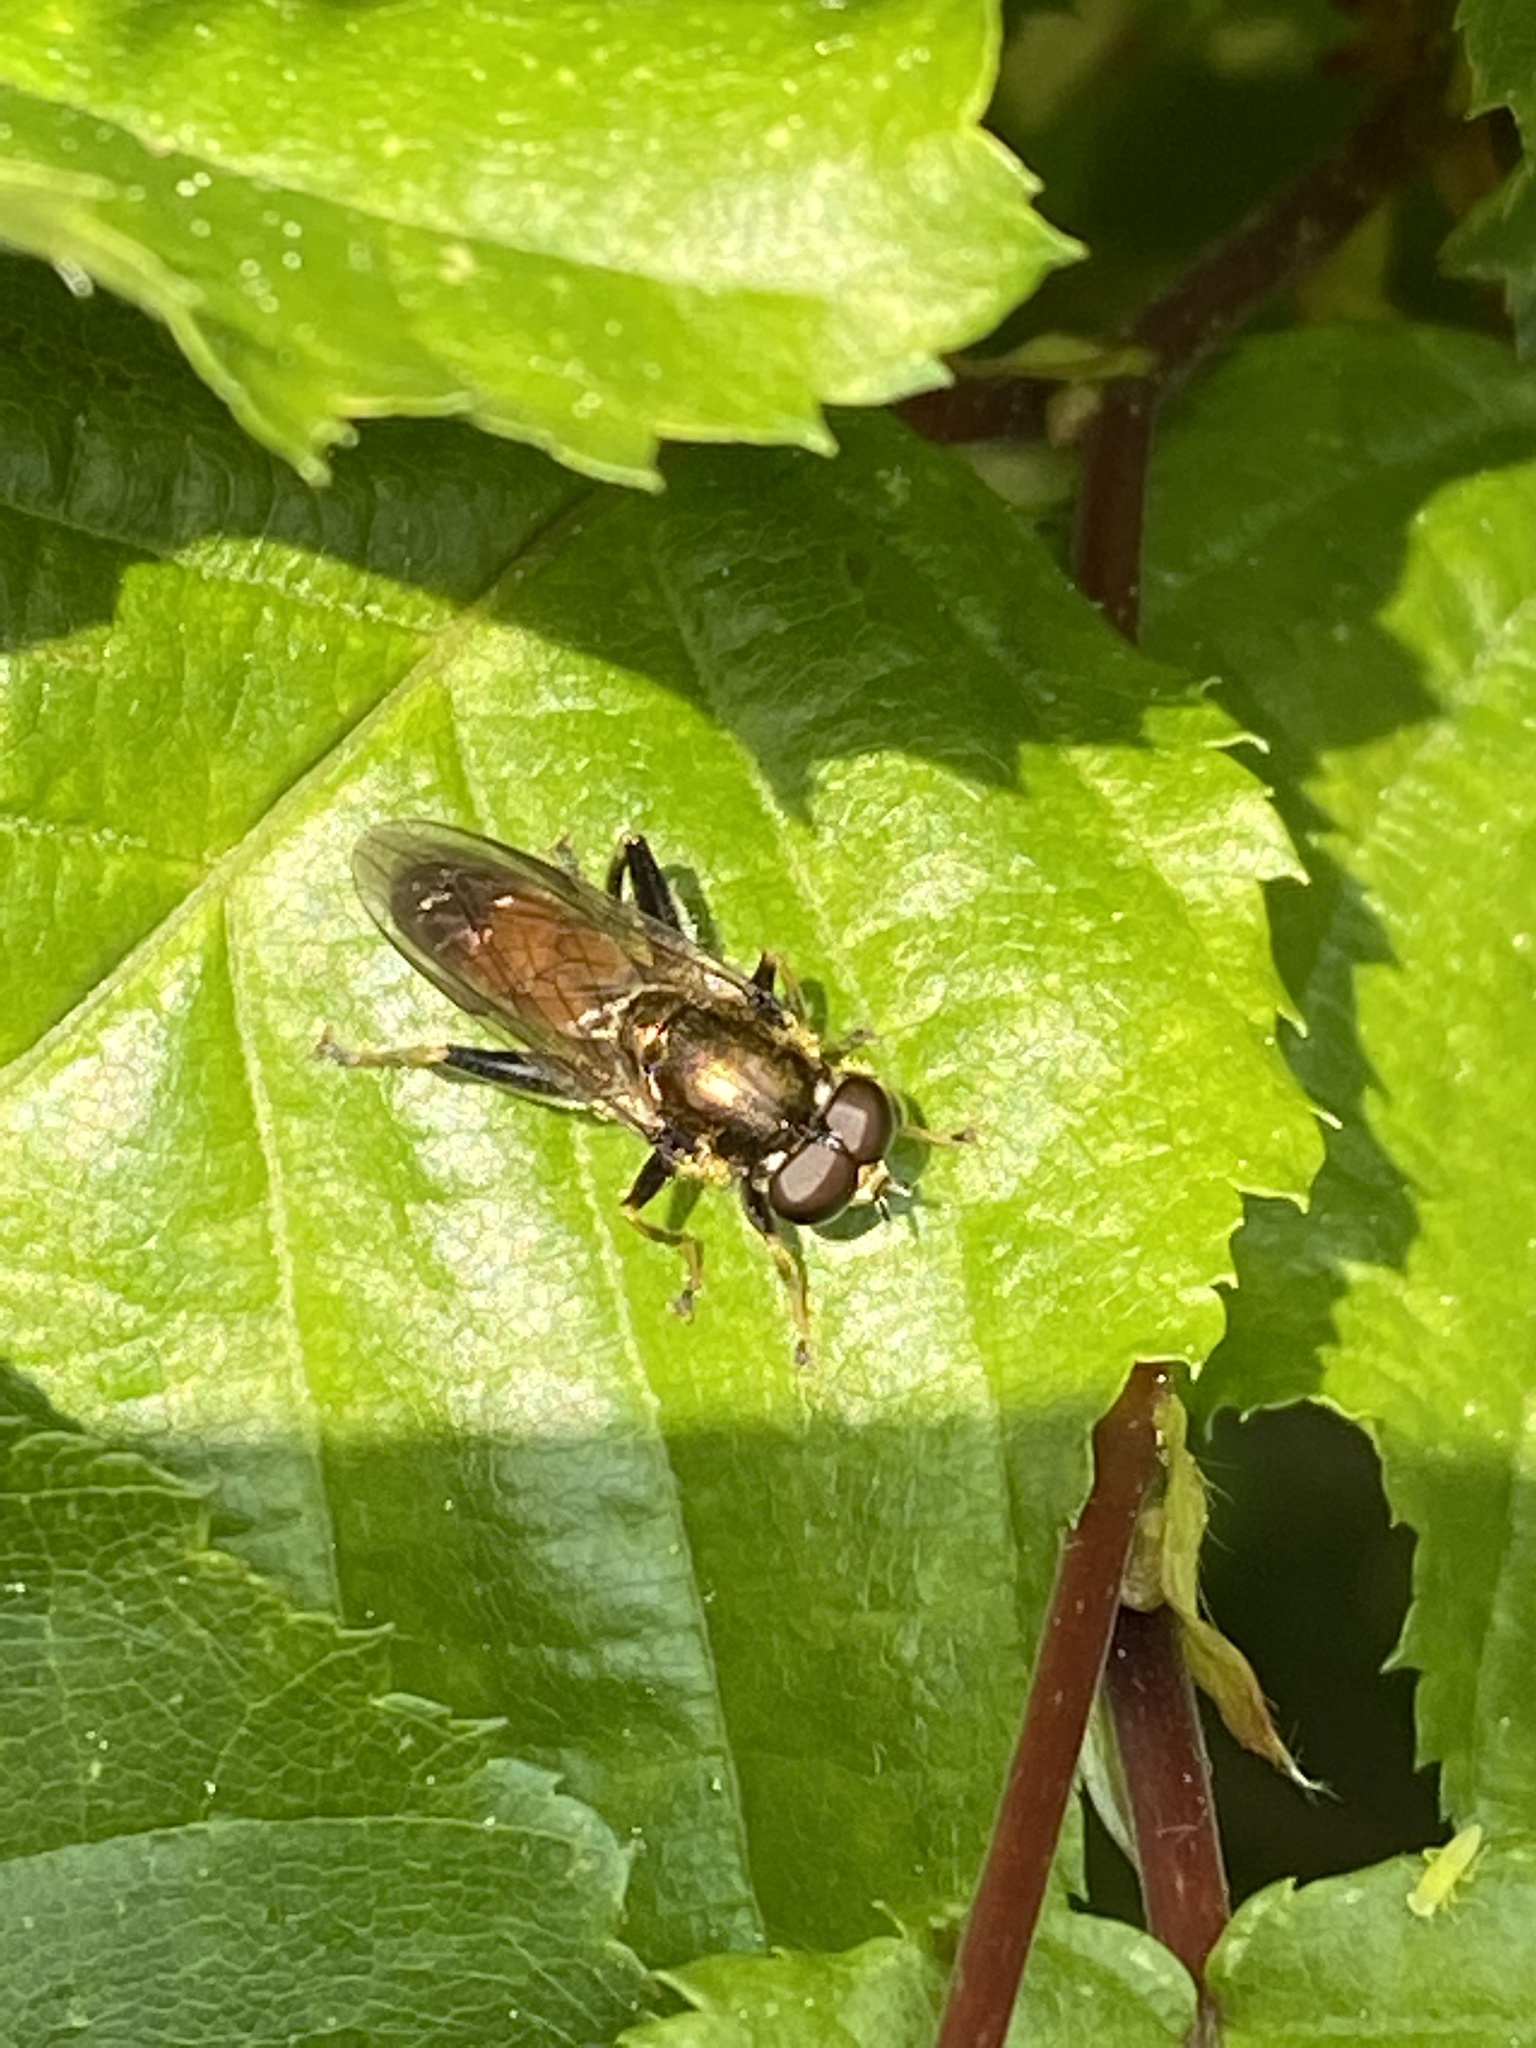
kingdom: Animalia
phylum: Arthropoda
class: Insecta
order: Diptera
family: Syrphidae
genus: Xylota
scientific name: Xylota segnis
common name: Brown-toed forest fly
